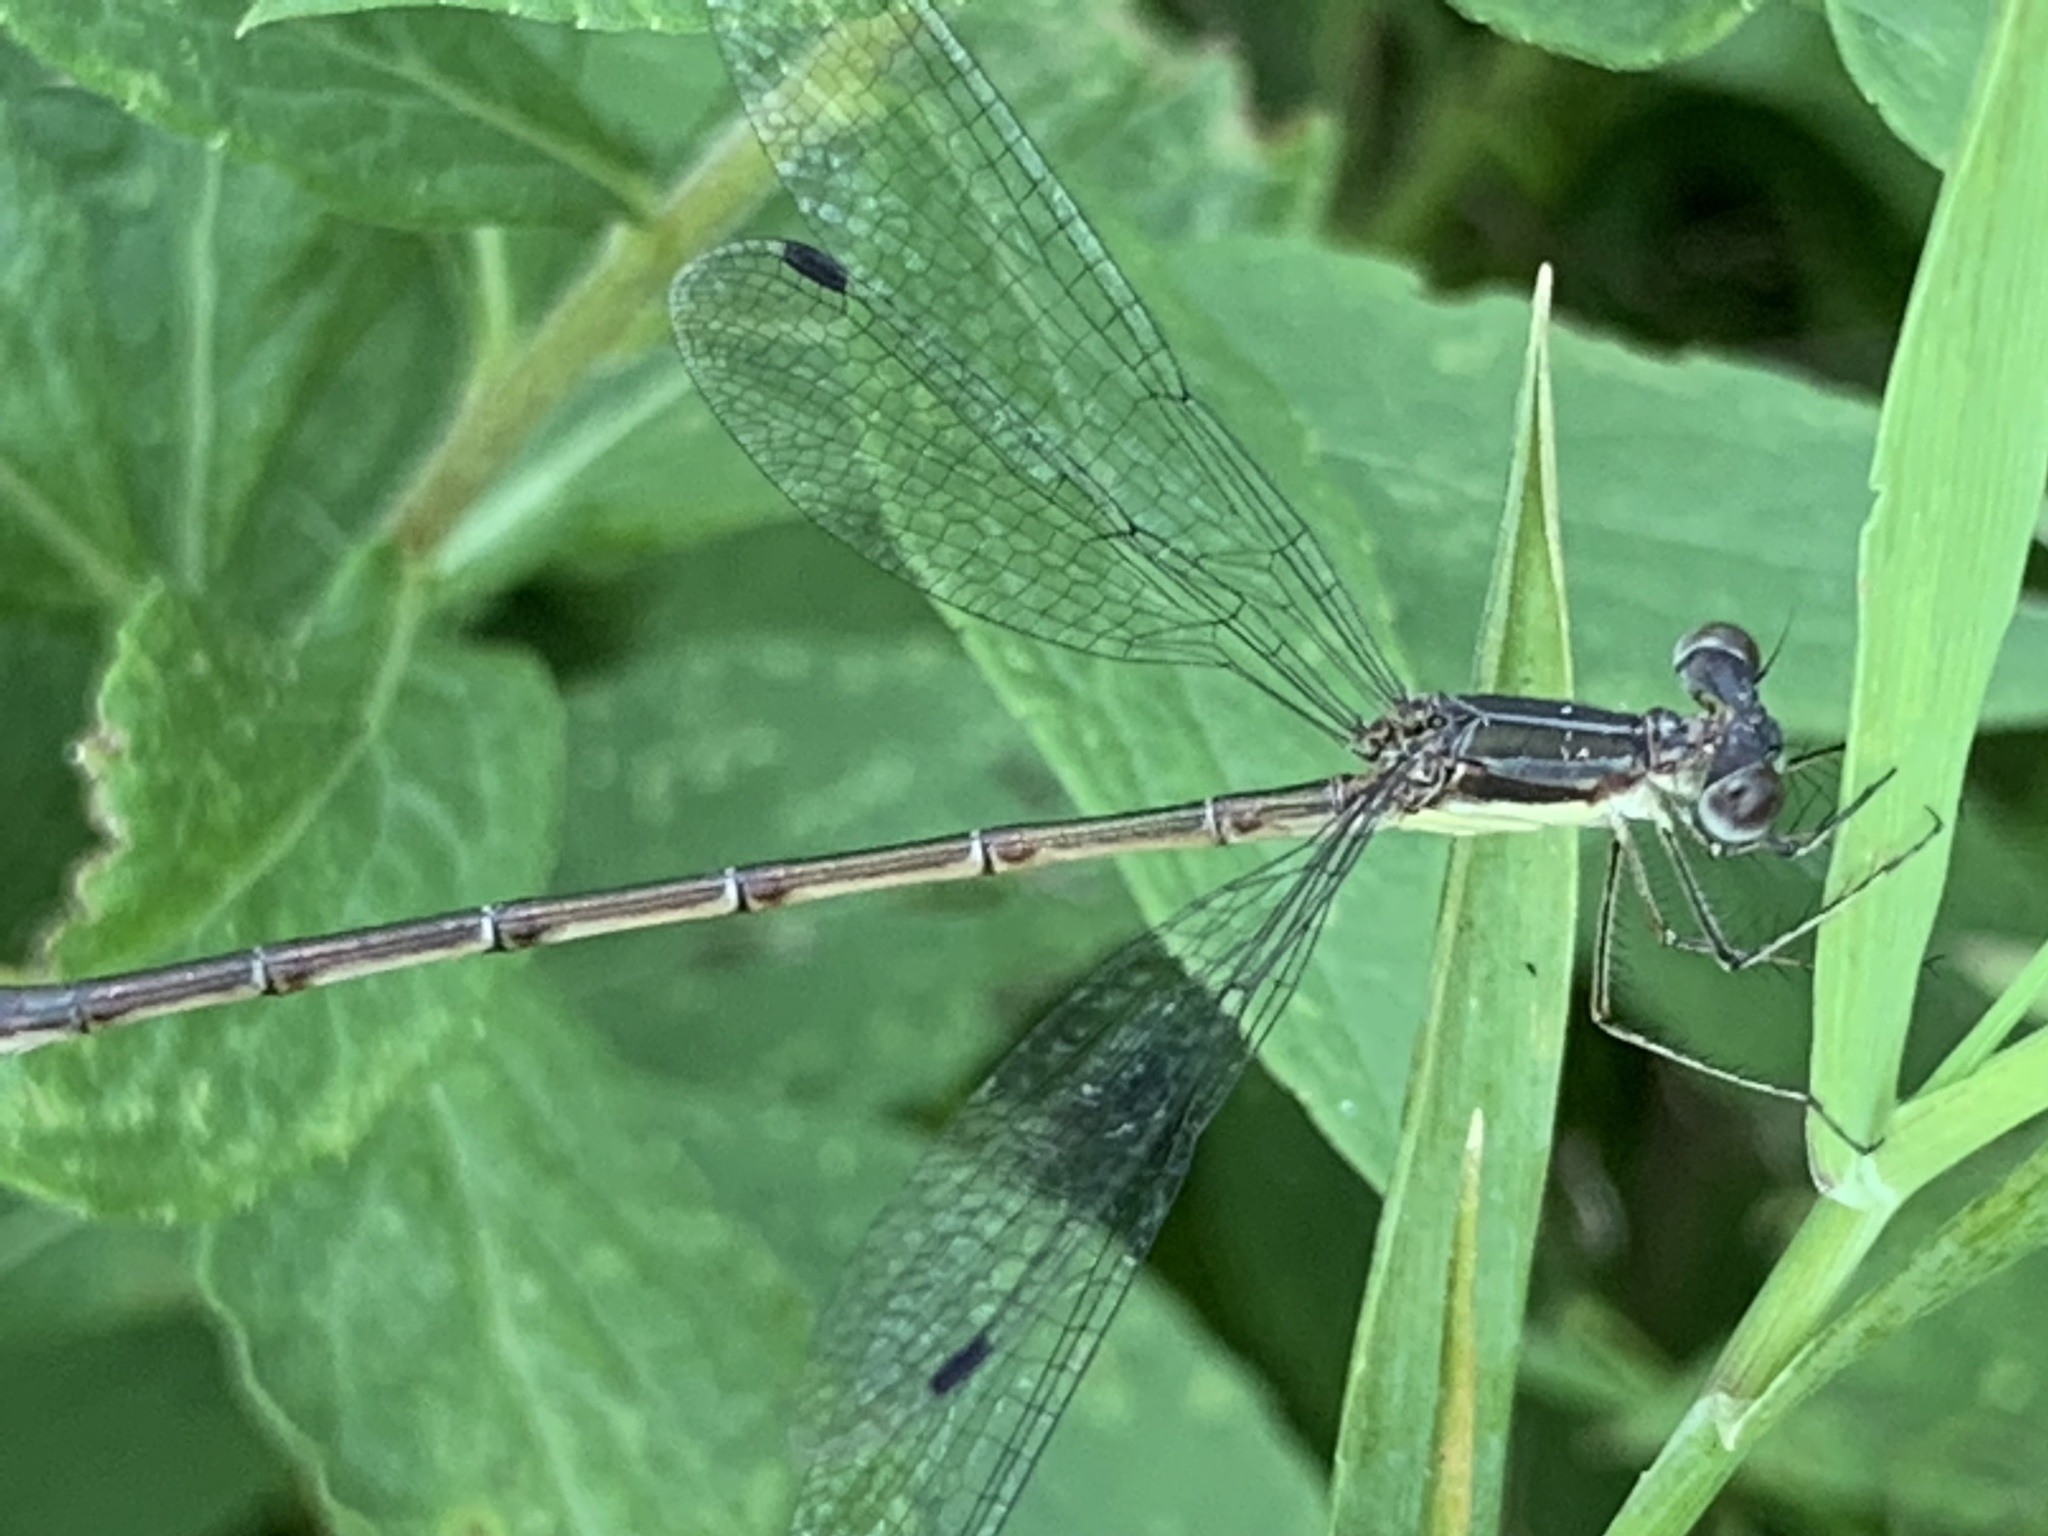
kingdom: Animalia
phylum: Arthropoda
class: Insecta
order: Odonata
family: Lestidae
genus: Lestes
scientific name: Lestes rectangularis
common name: Slender spreadwing
